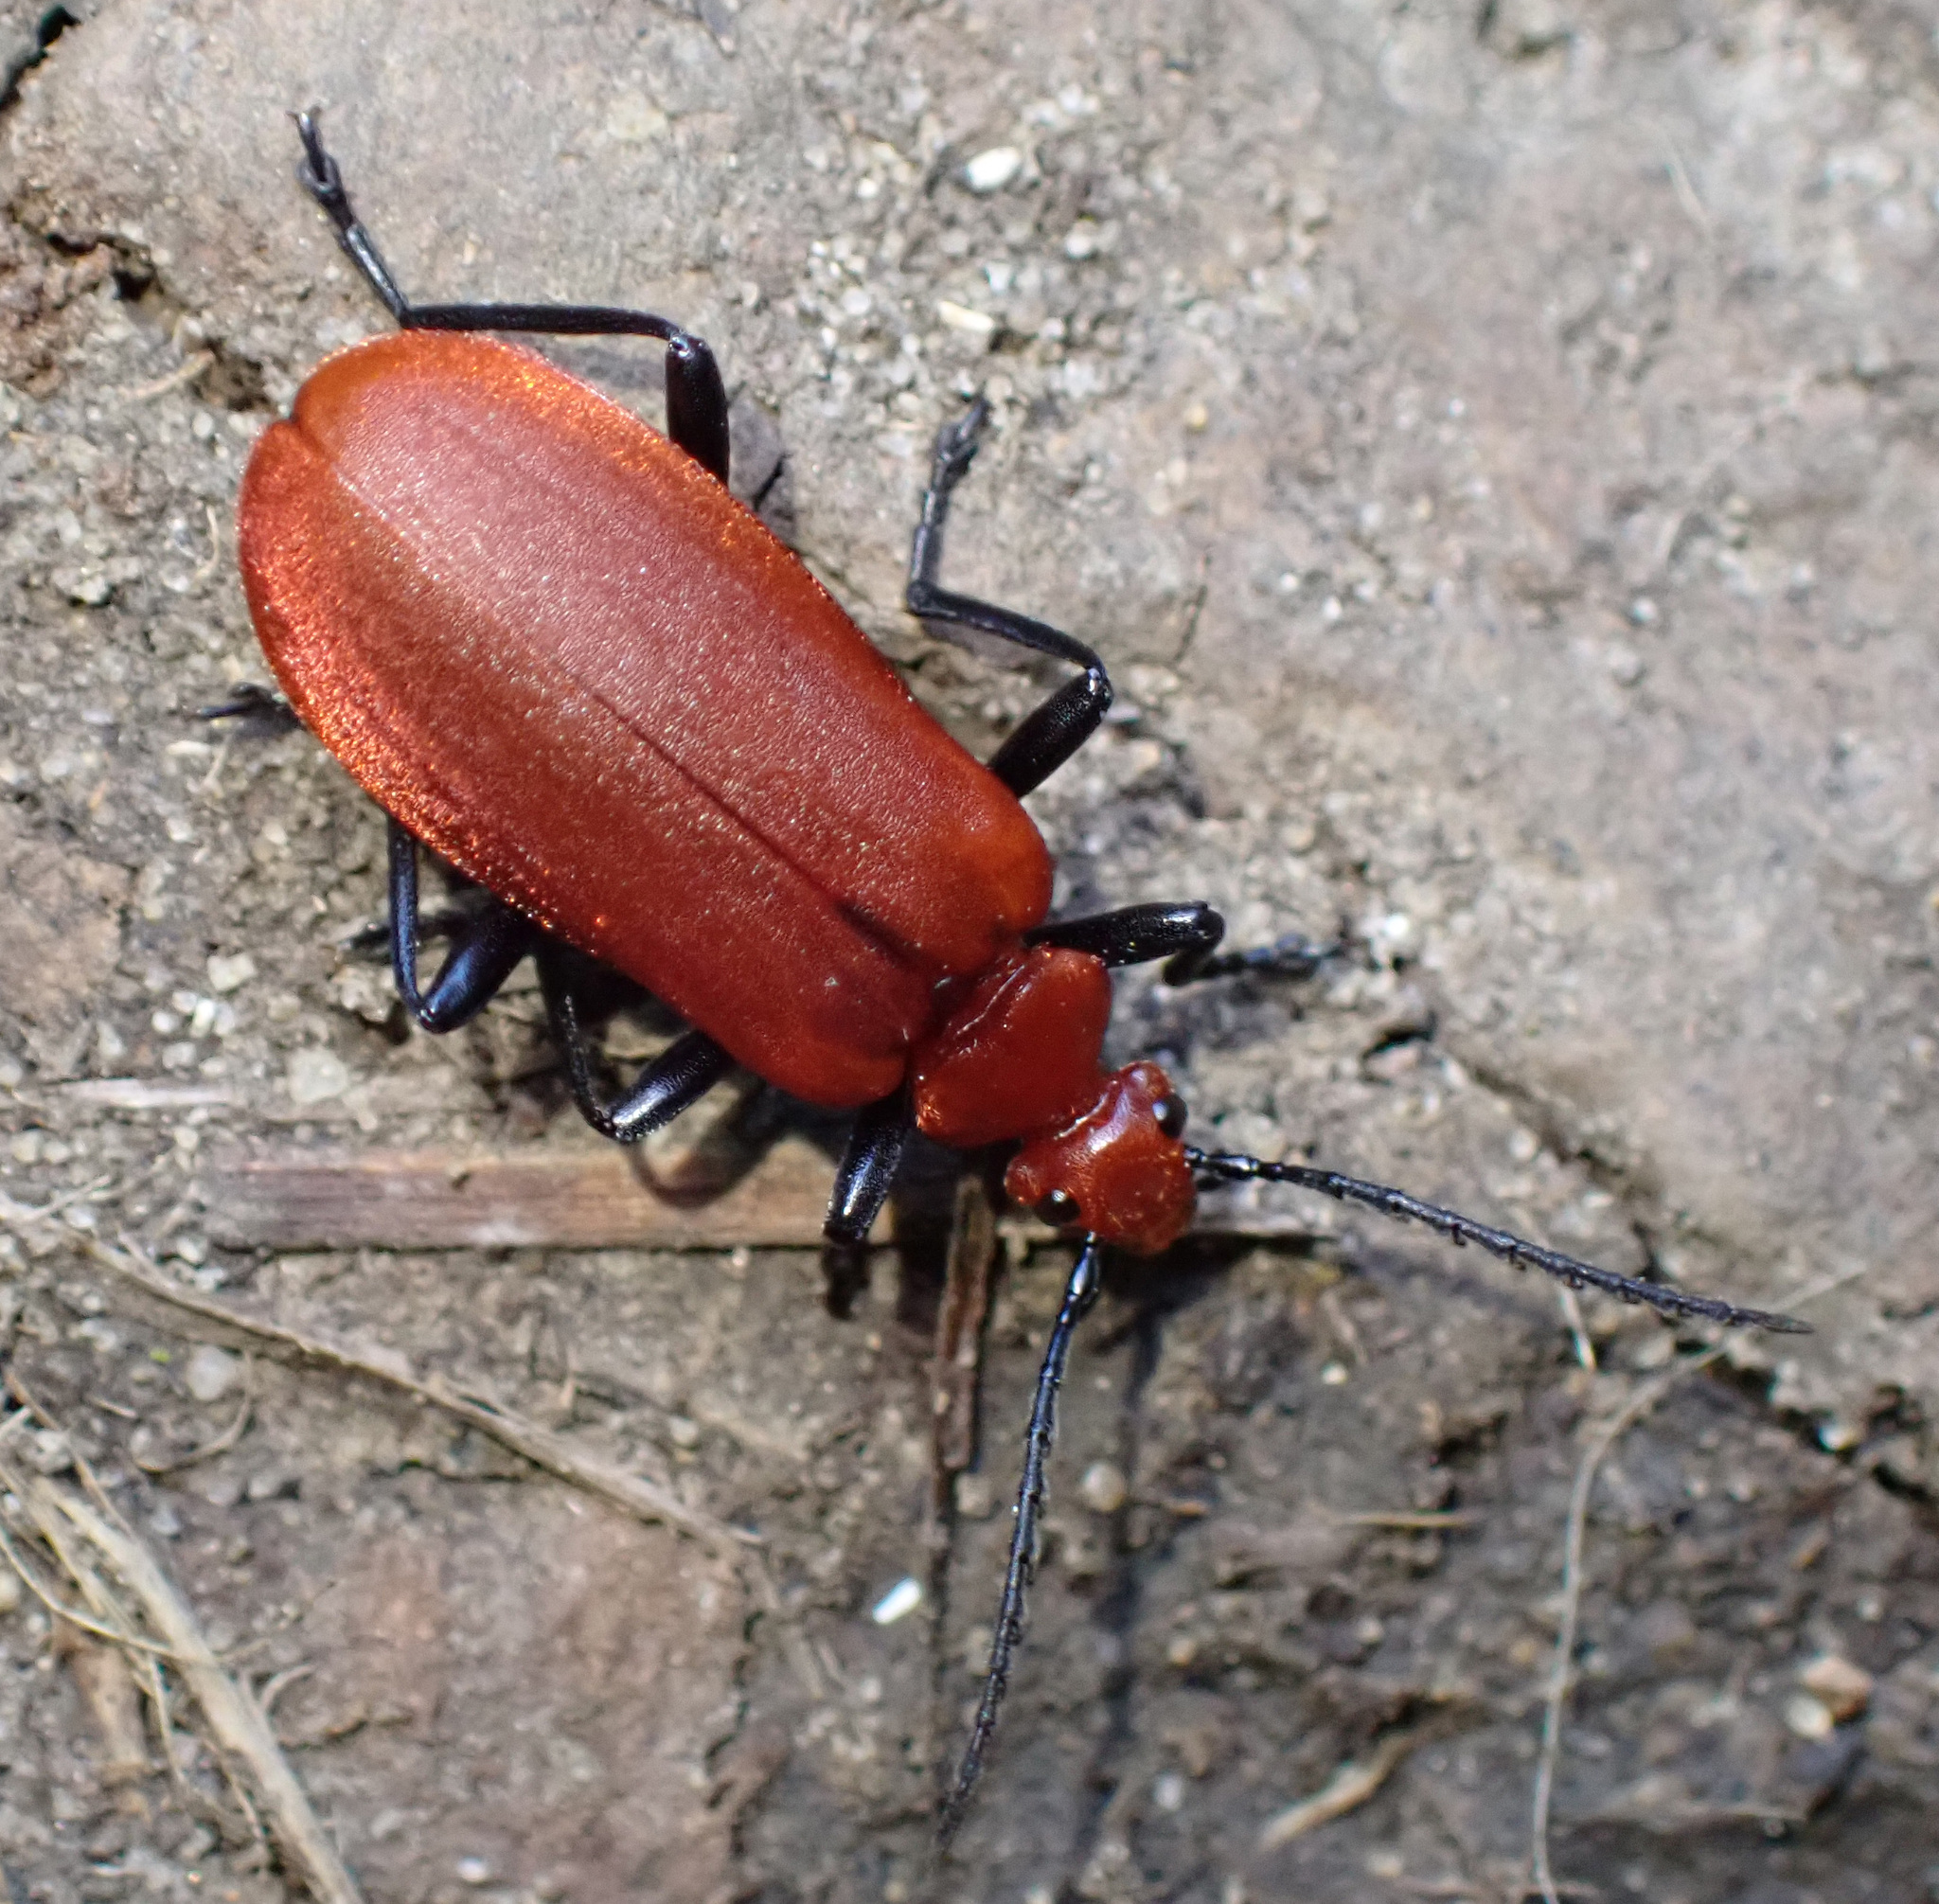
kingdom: Animalia
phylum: Arthropoda
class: Insecta
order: Coleoptera
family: Pyrochroidae
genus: Pyrochroa
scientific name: Pyrochroa serraticornis
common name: Red-headed cardinal beetle
